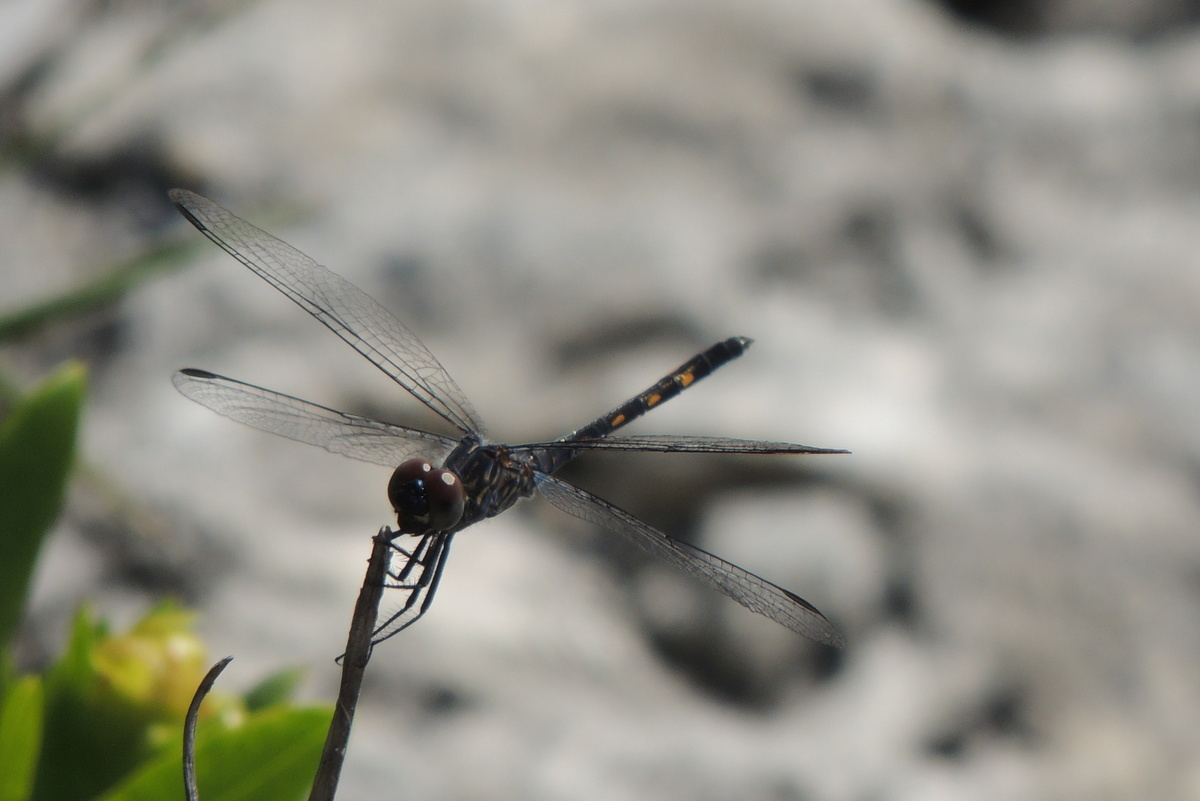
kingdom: Animalia
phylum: Arthropoda
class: Insecta
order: Odonata
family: Libellulidae
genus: Erythrodiplax
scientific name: Erythrodiplax berenice
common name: Seaside dragonlet
